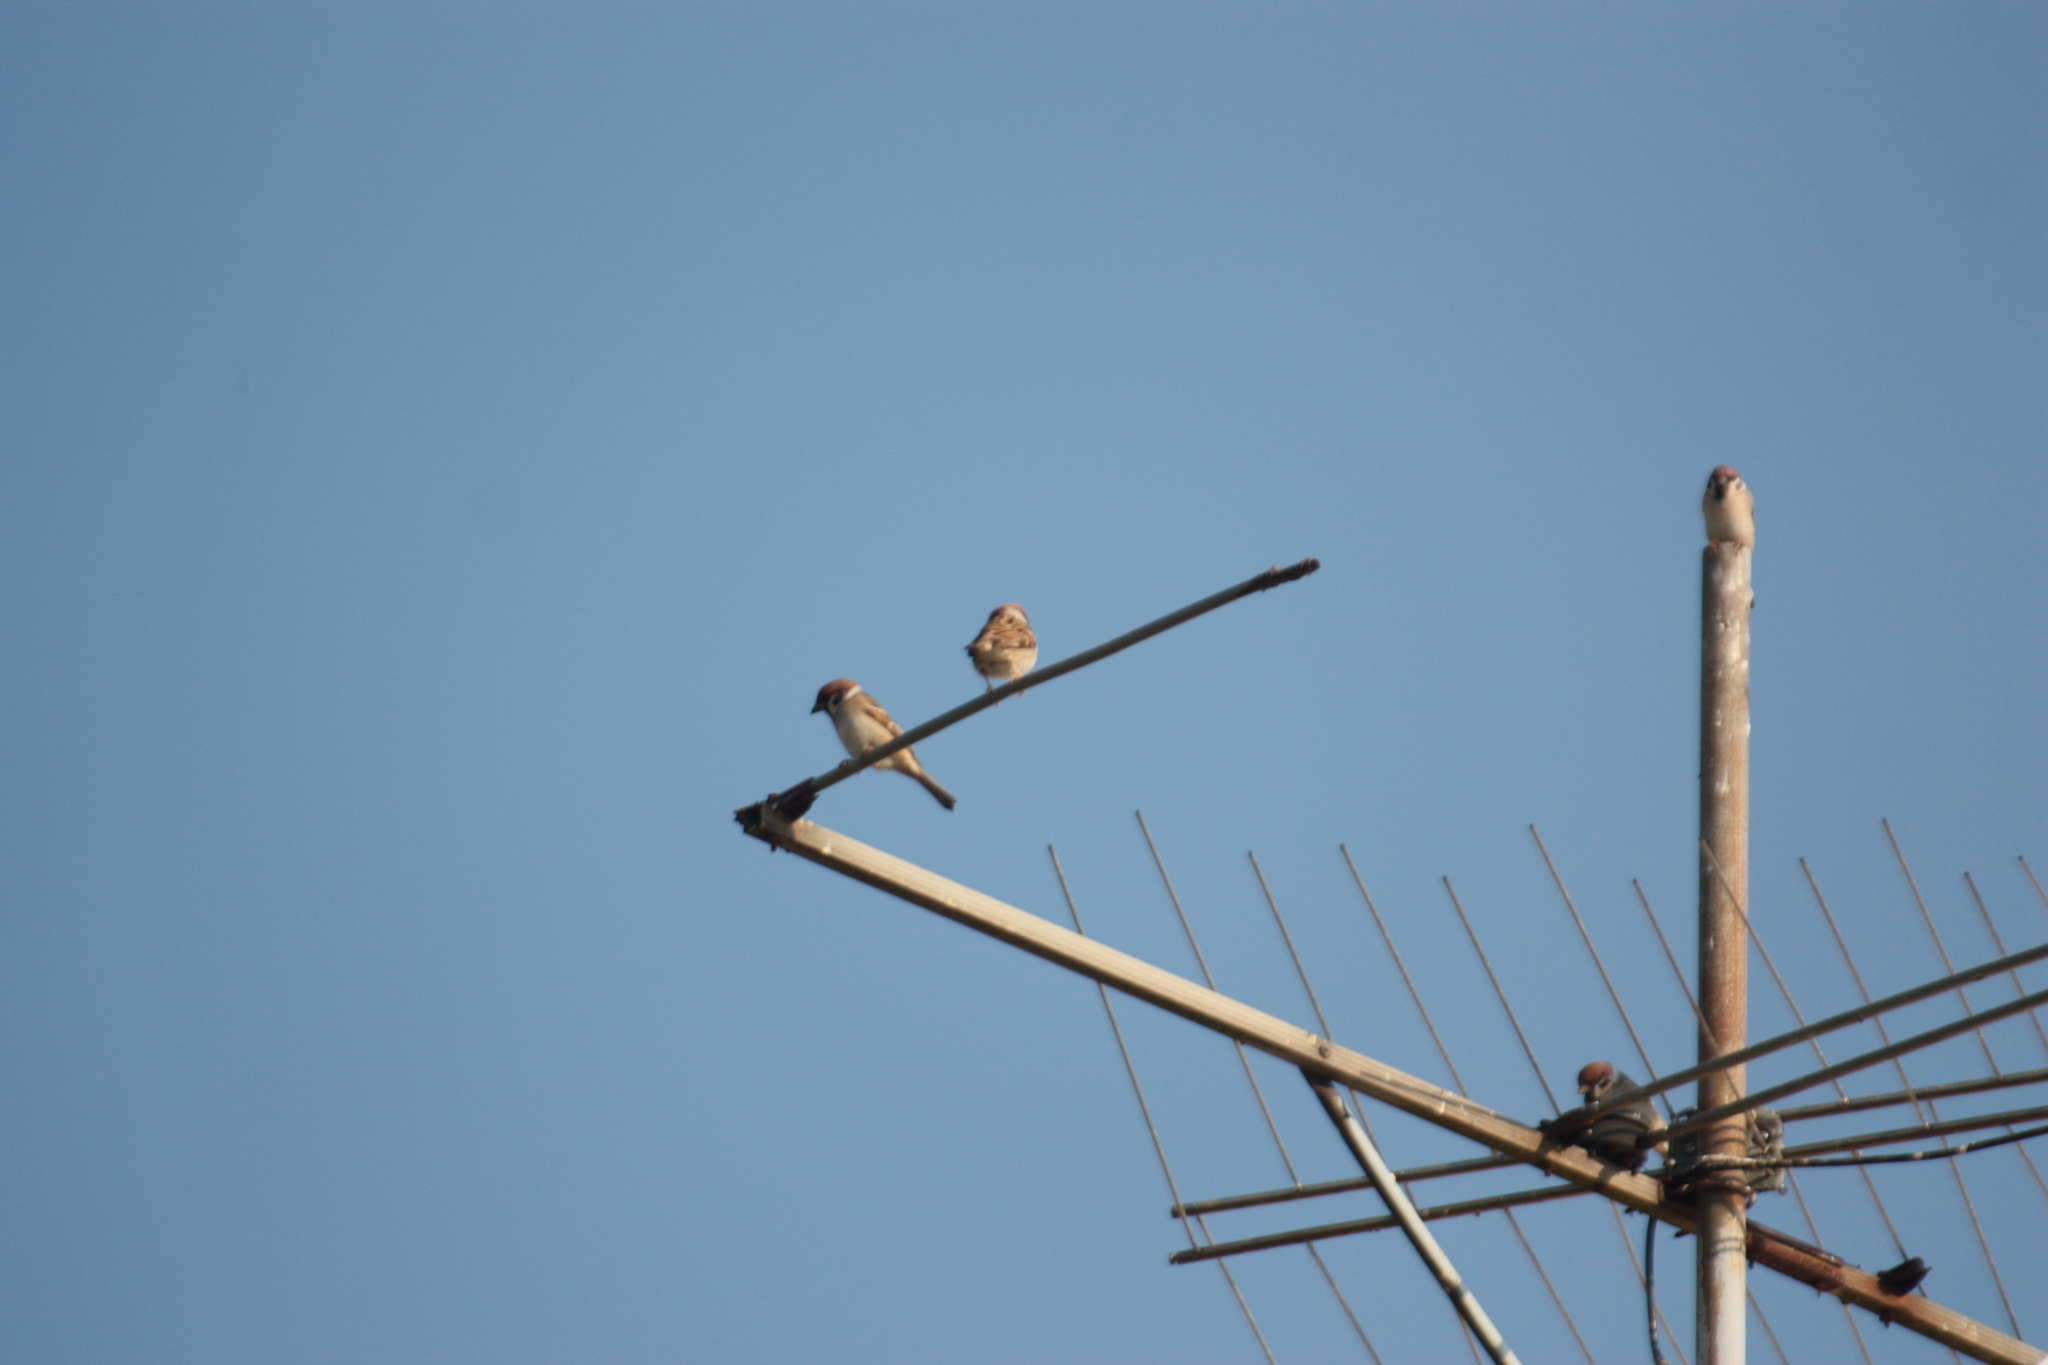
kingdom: Animalia
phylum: Chordata
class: Aves
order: Passeriformes
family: Passeridae
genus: Passer
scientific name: Passer montanus
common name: Eurasian tree sparrow
